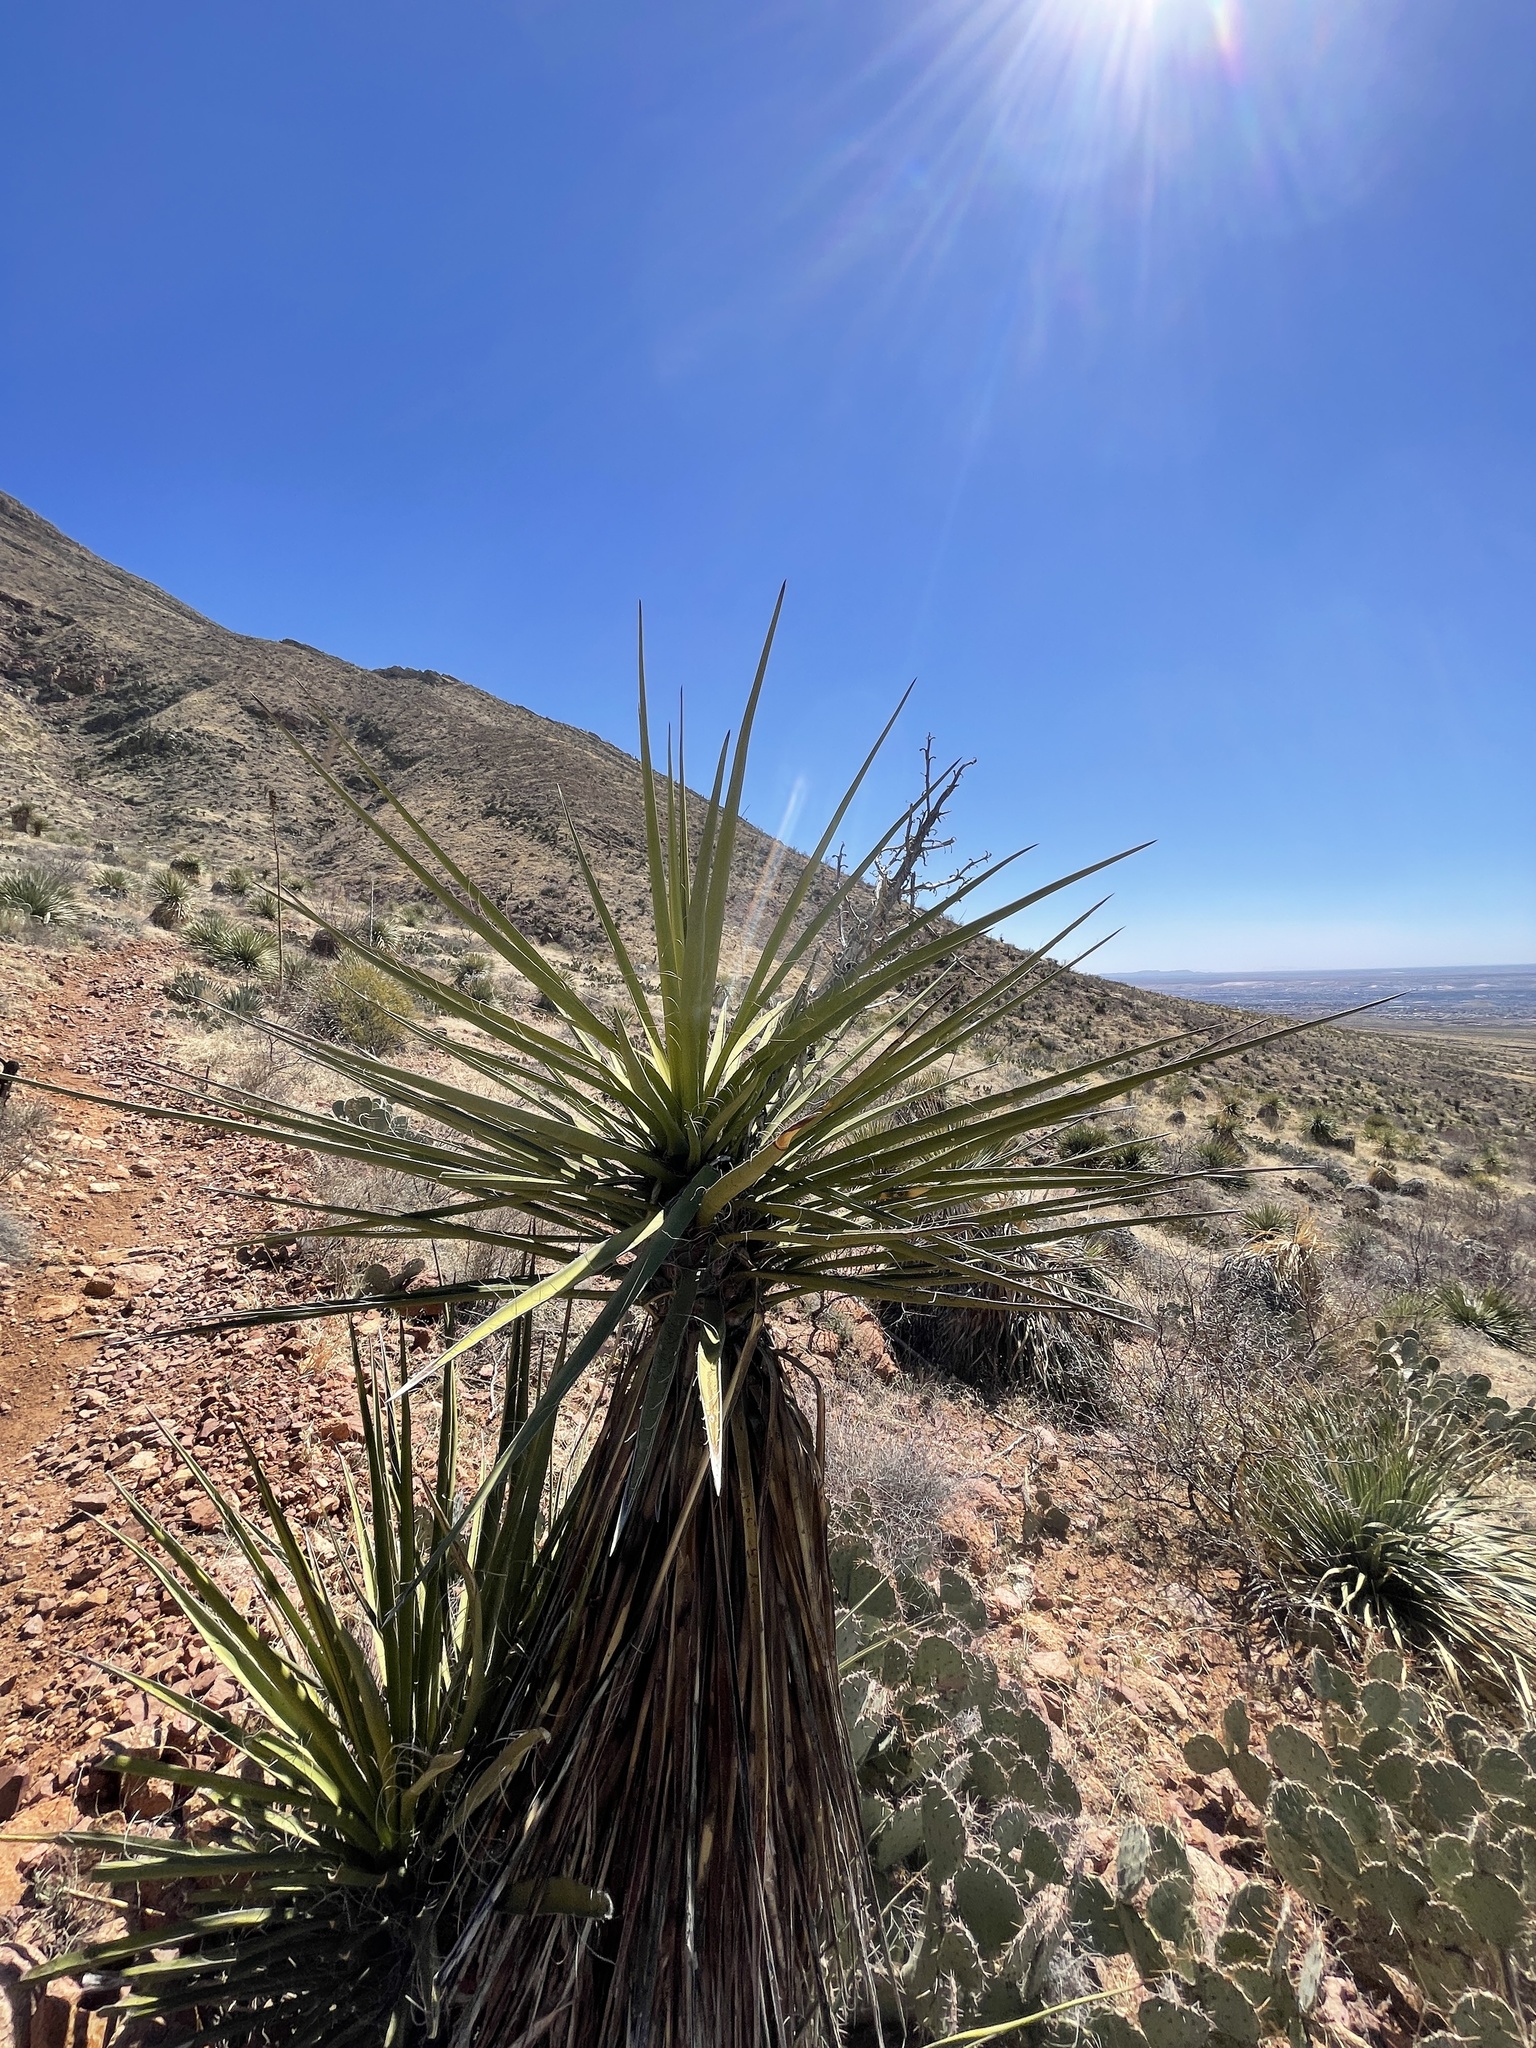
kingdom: Plantae
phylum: Tracheophyta
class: Liliopsida
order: Asparagales
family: Asparagaceae
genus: Yucca
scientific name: Yucca treculiana
